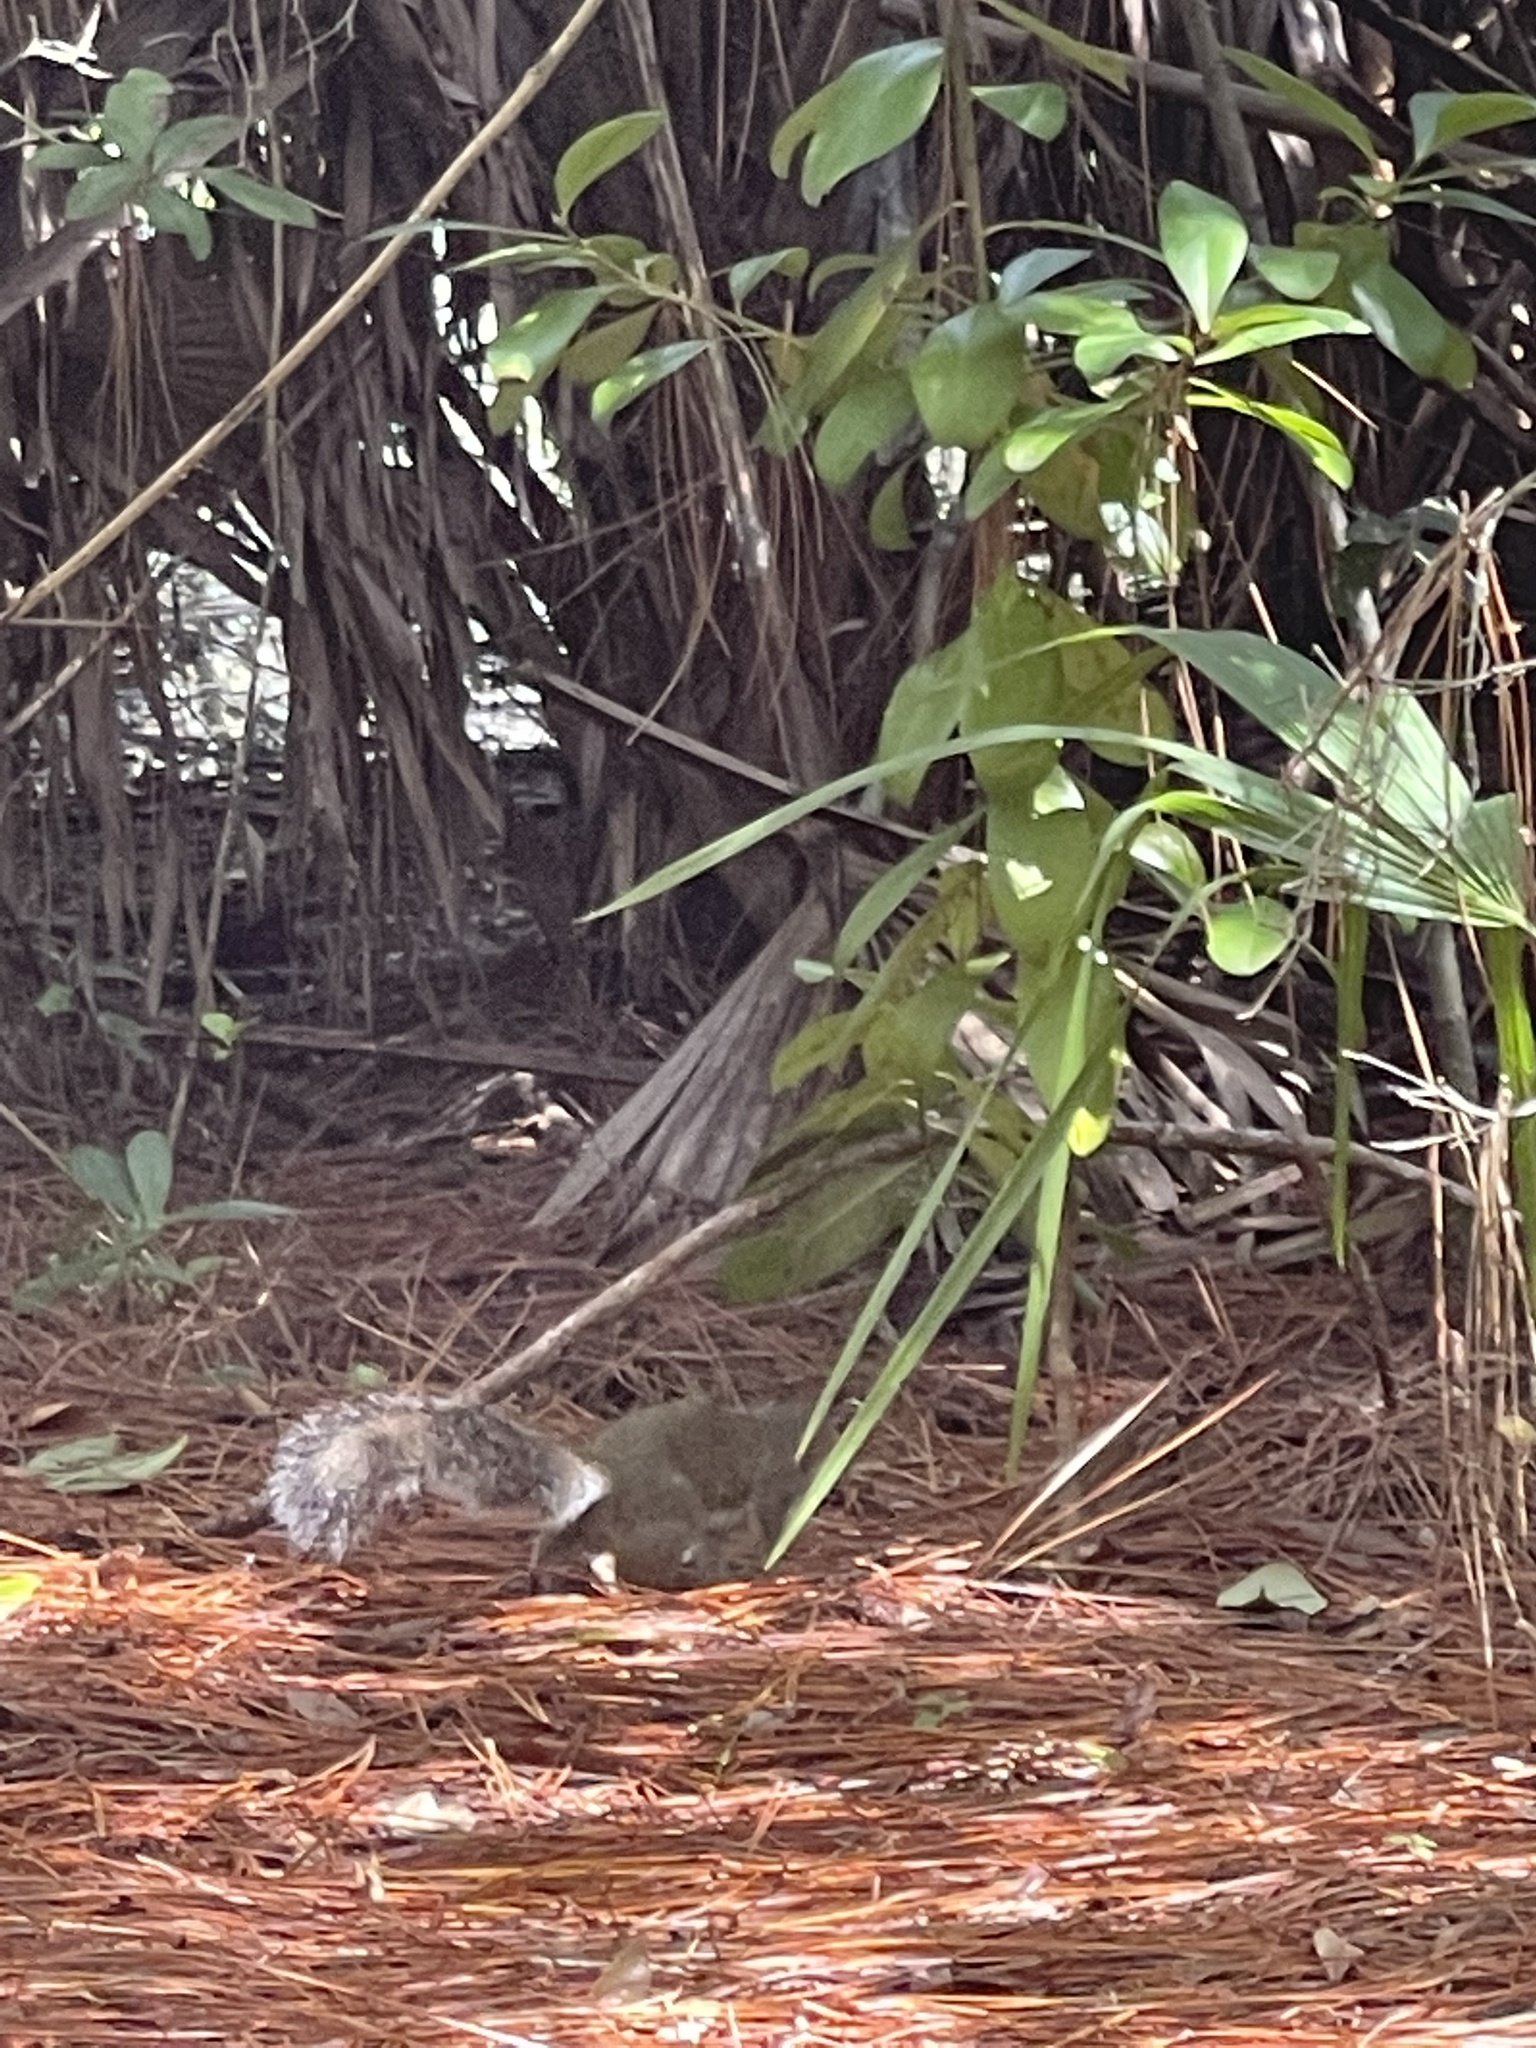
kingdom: Animalia
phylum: Chordata
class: Mammalia
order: Rodentia
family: Sciuridae
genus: Sciurus
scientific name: Sciurus carolinensis
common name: Eastern gray squirrel
